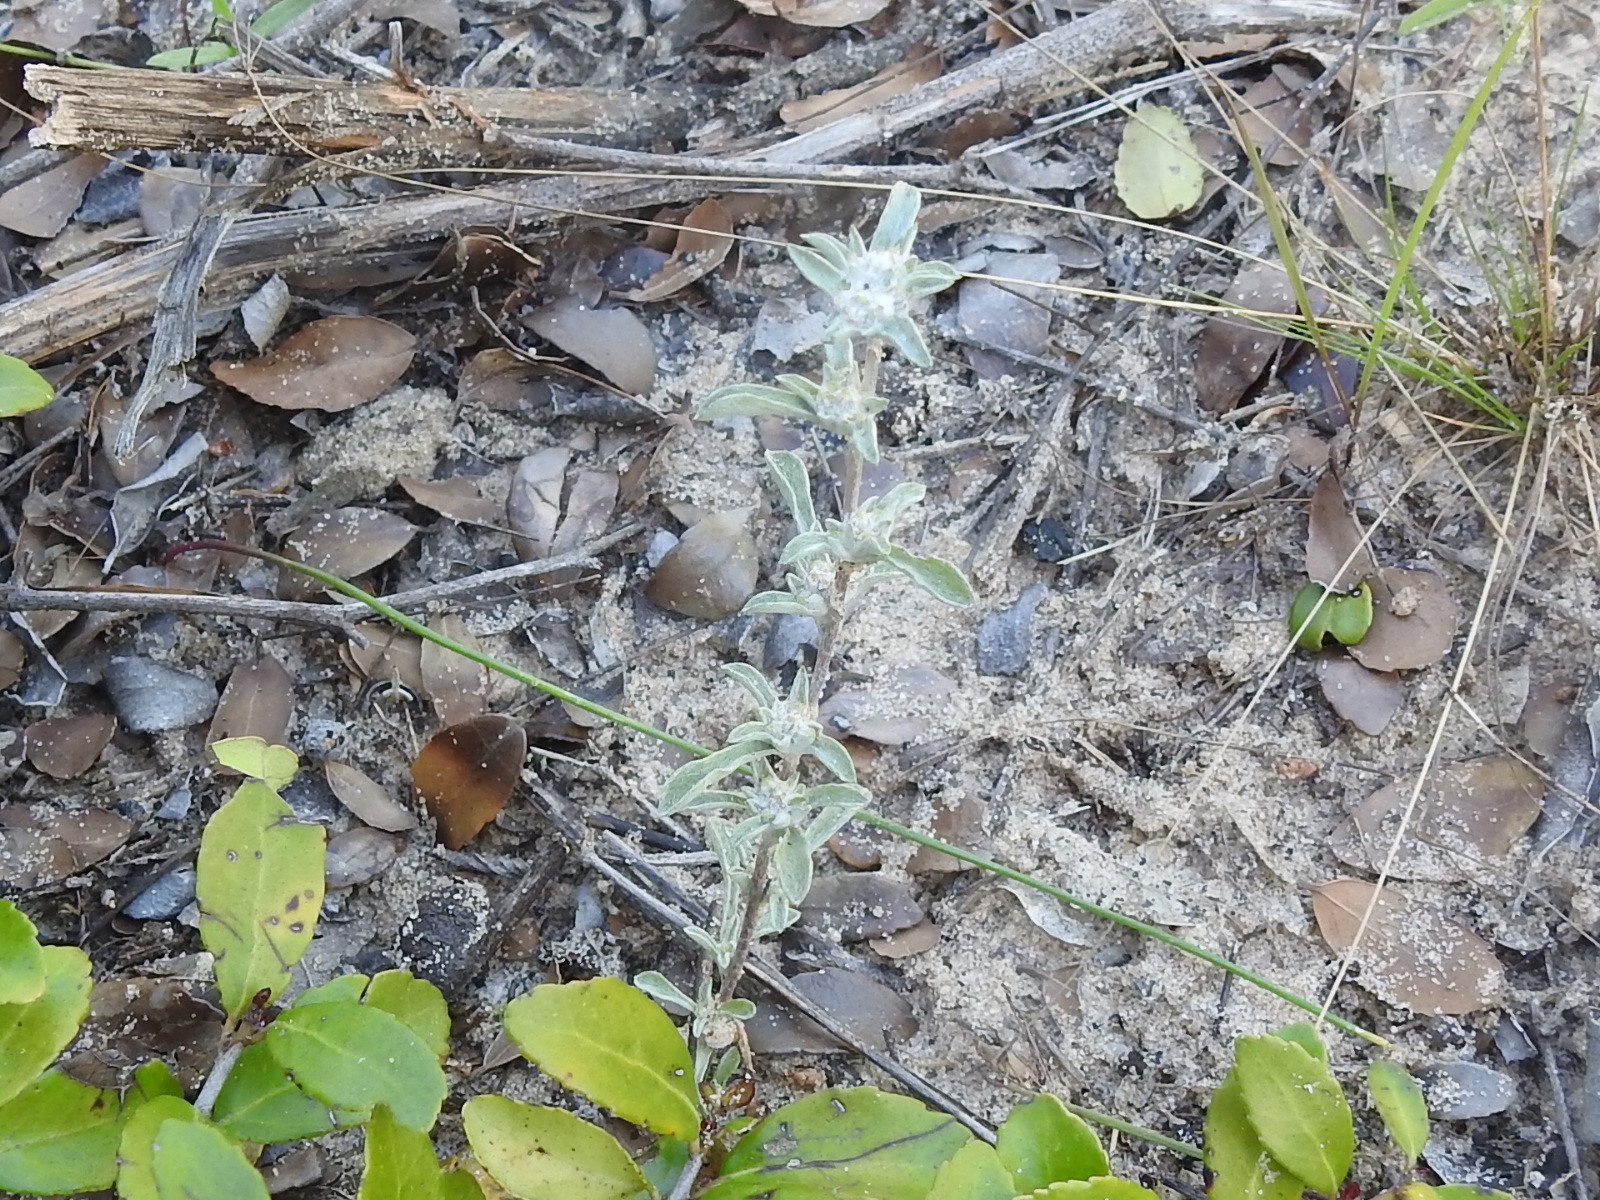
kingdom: Plantae
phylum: Tracheophyta
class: Magnoliopsida
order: Asterales
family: Asteraceae
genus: Diaperia
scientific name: Diaperia candida
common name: Silver rabbit-tobacco
